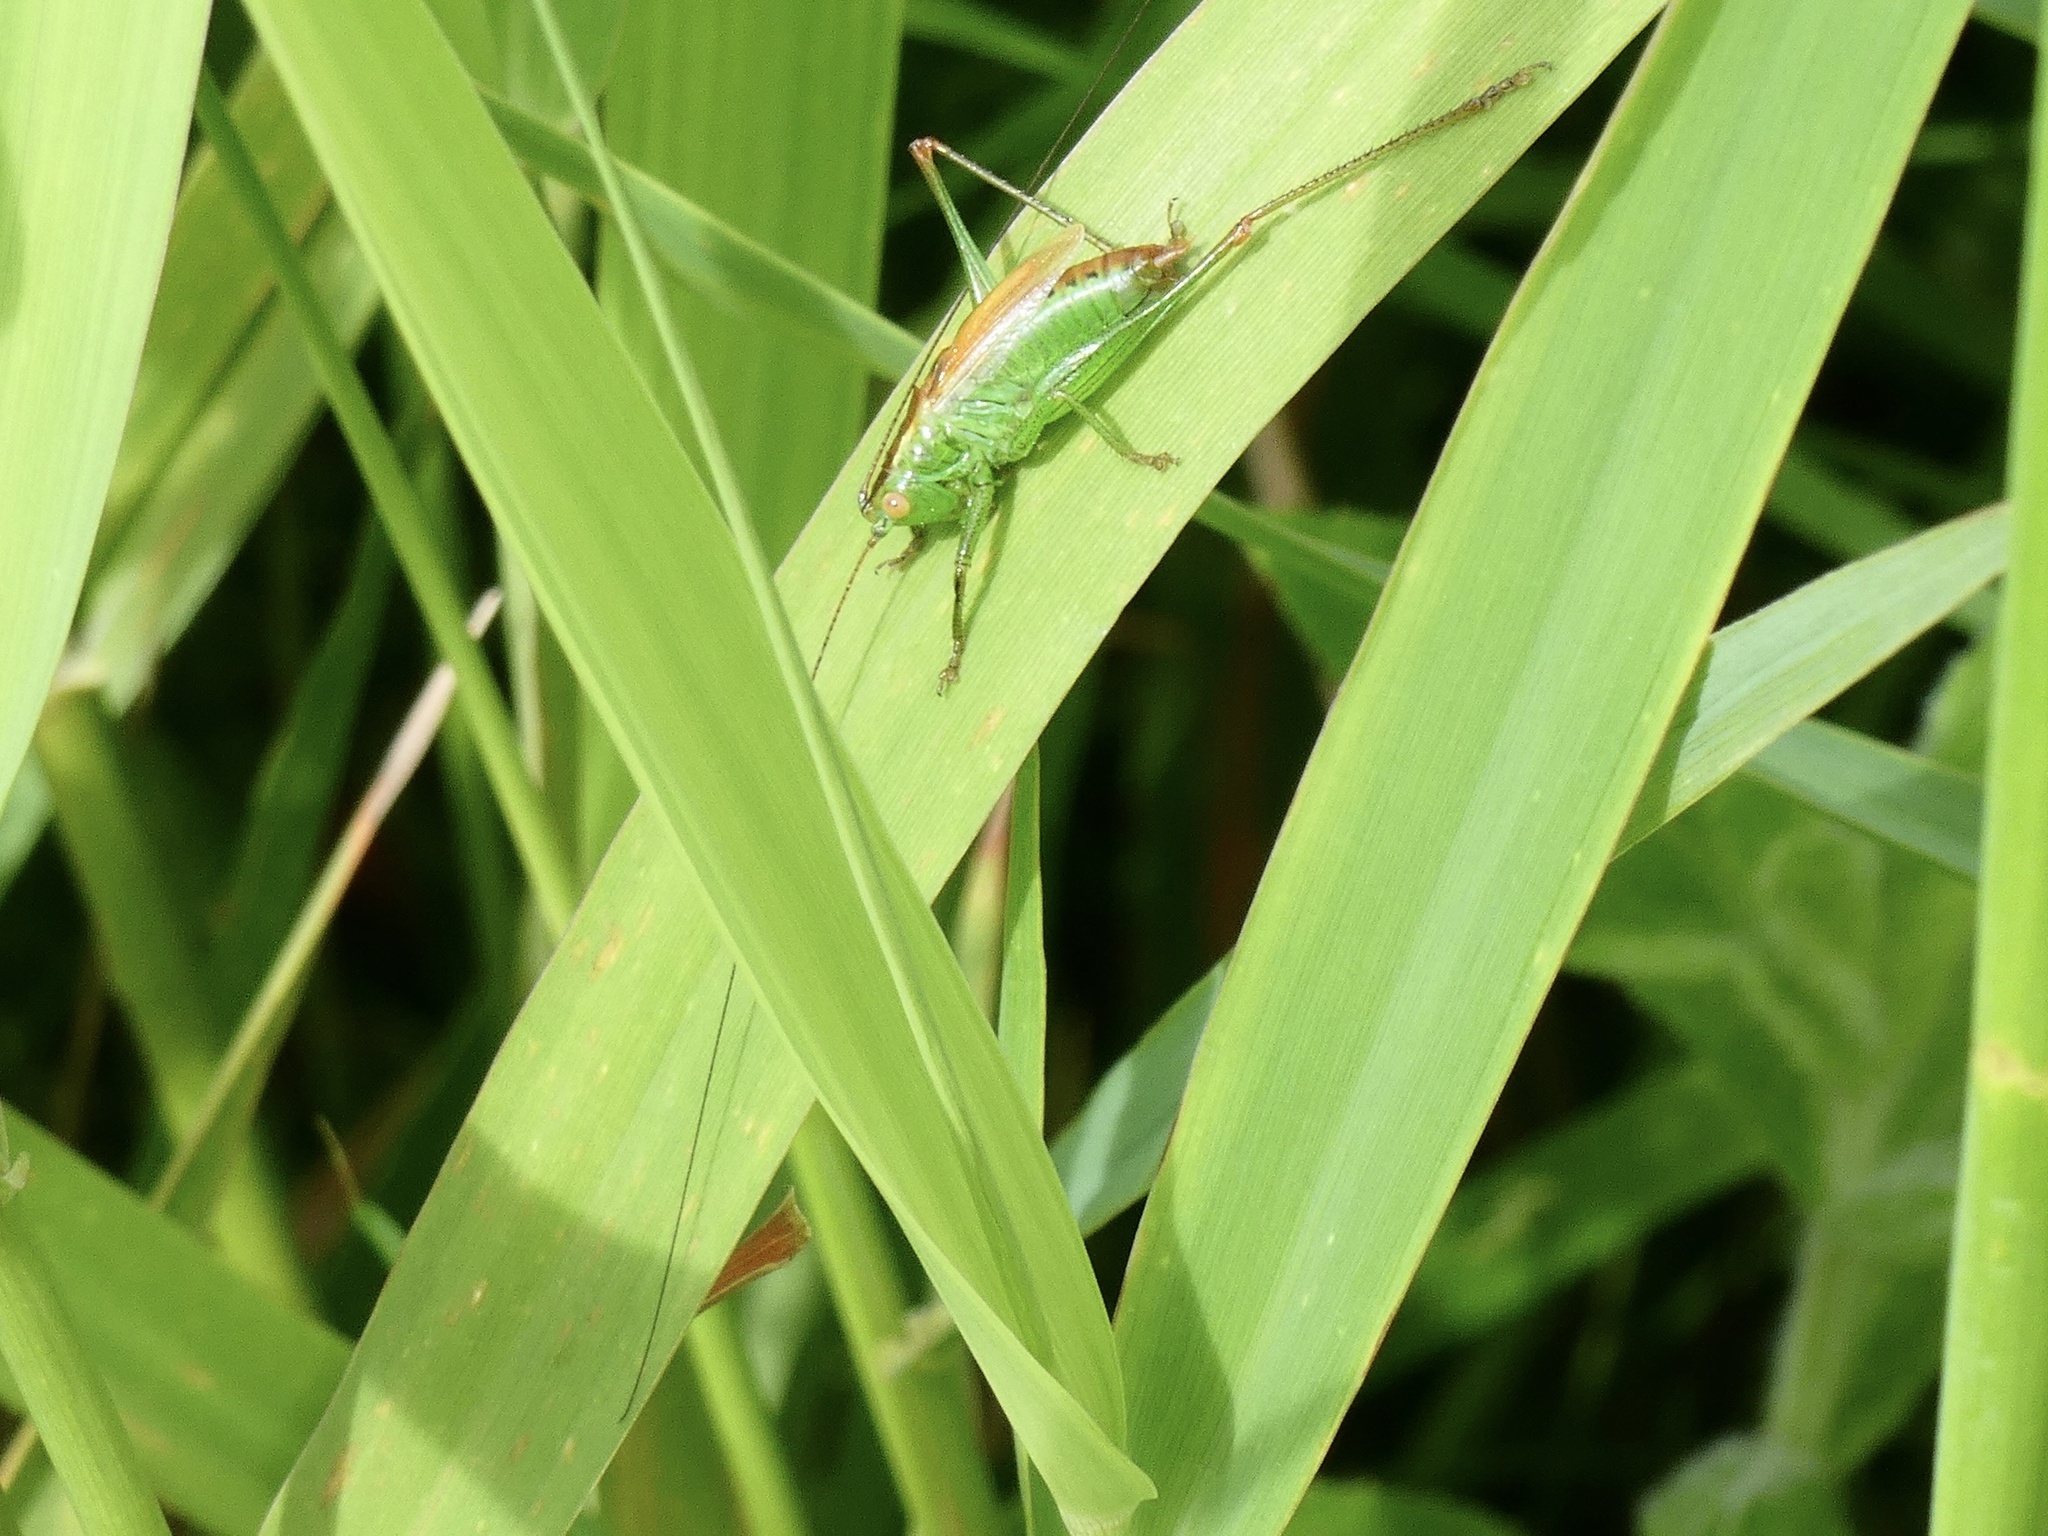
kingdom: Animalia
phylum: Arthropoda
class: Insecta
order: Orthoptera
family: Tettigoniidae
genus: Conocephalus
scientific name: Conocephalus dorsalis
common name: Short-winged conehead
